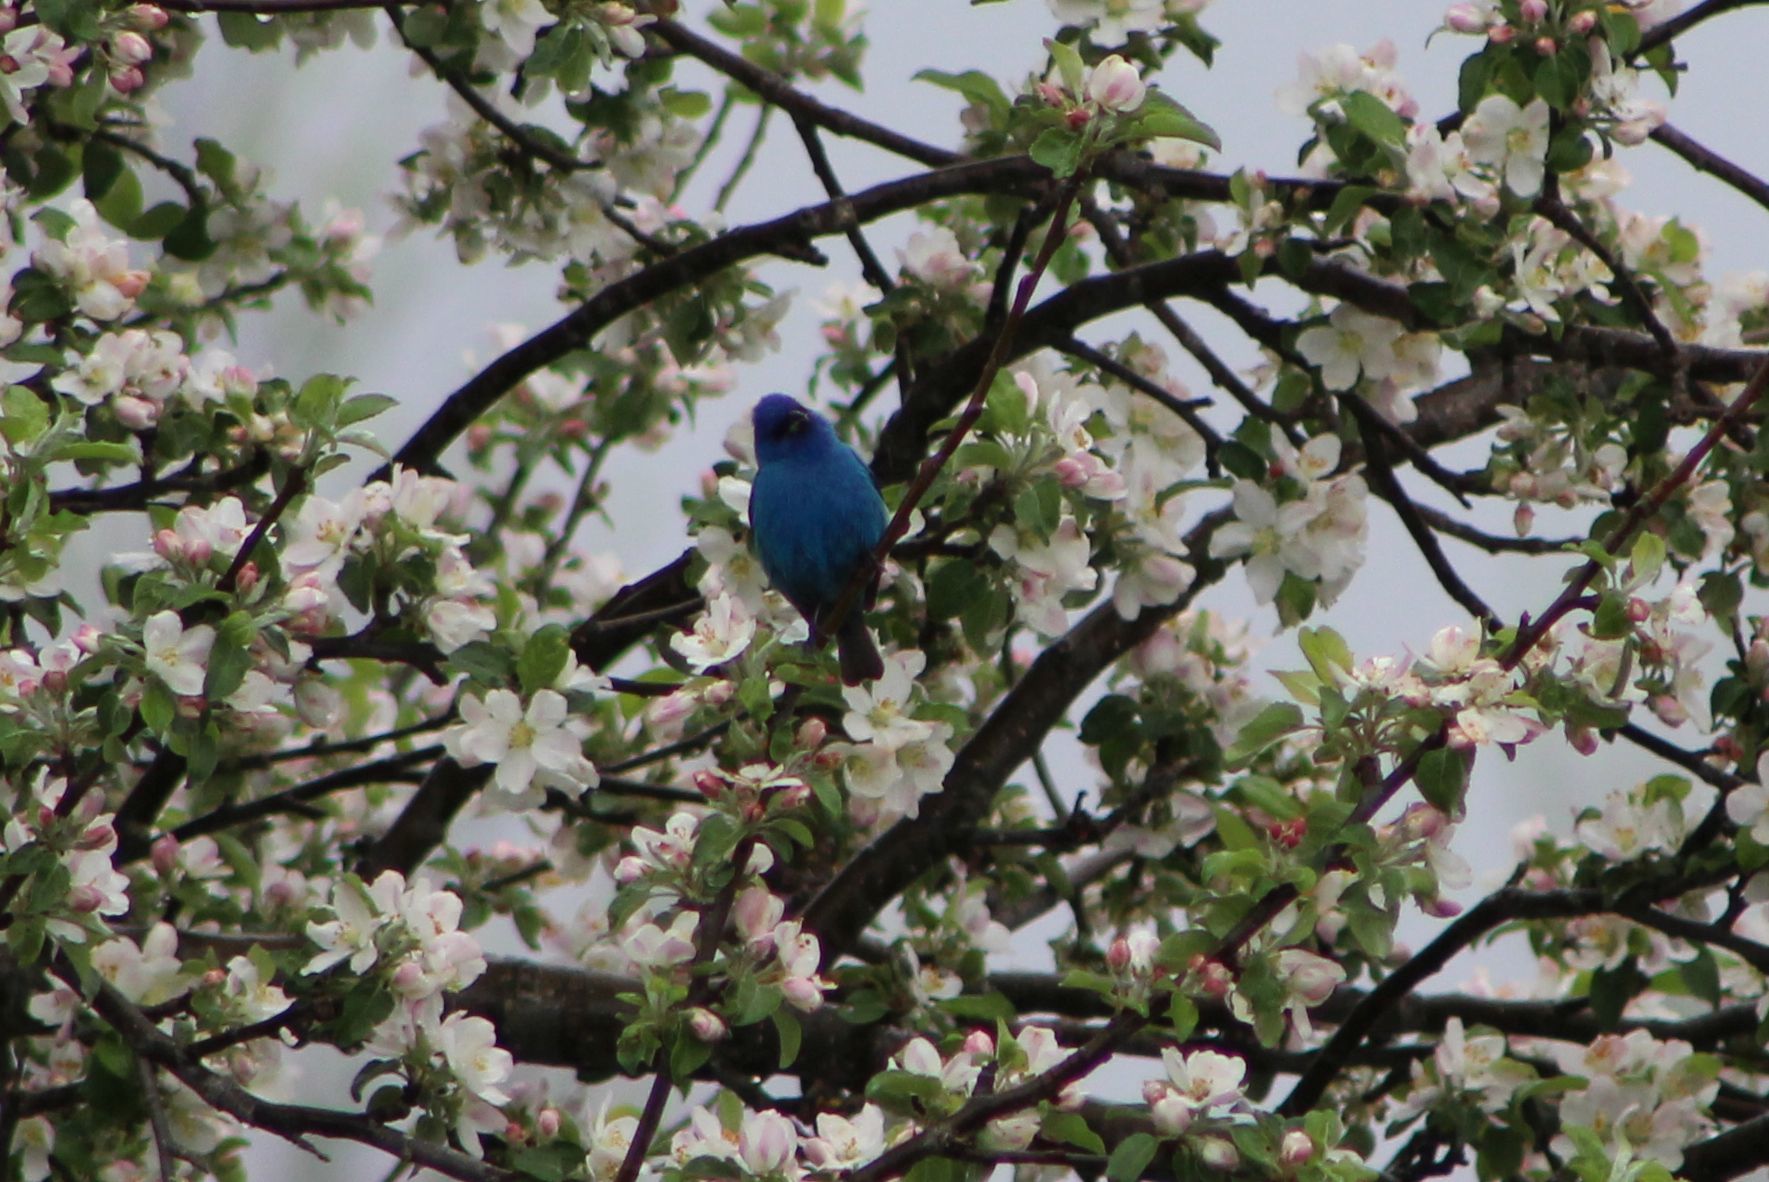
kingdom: Animalia
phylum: Chordata
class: Aves
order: Passeriformes
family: Cardinalidae
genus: Passerina
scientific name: Passerina cyanea
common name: Indigo bunting
